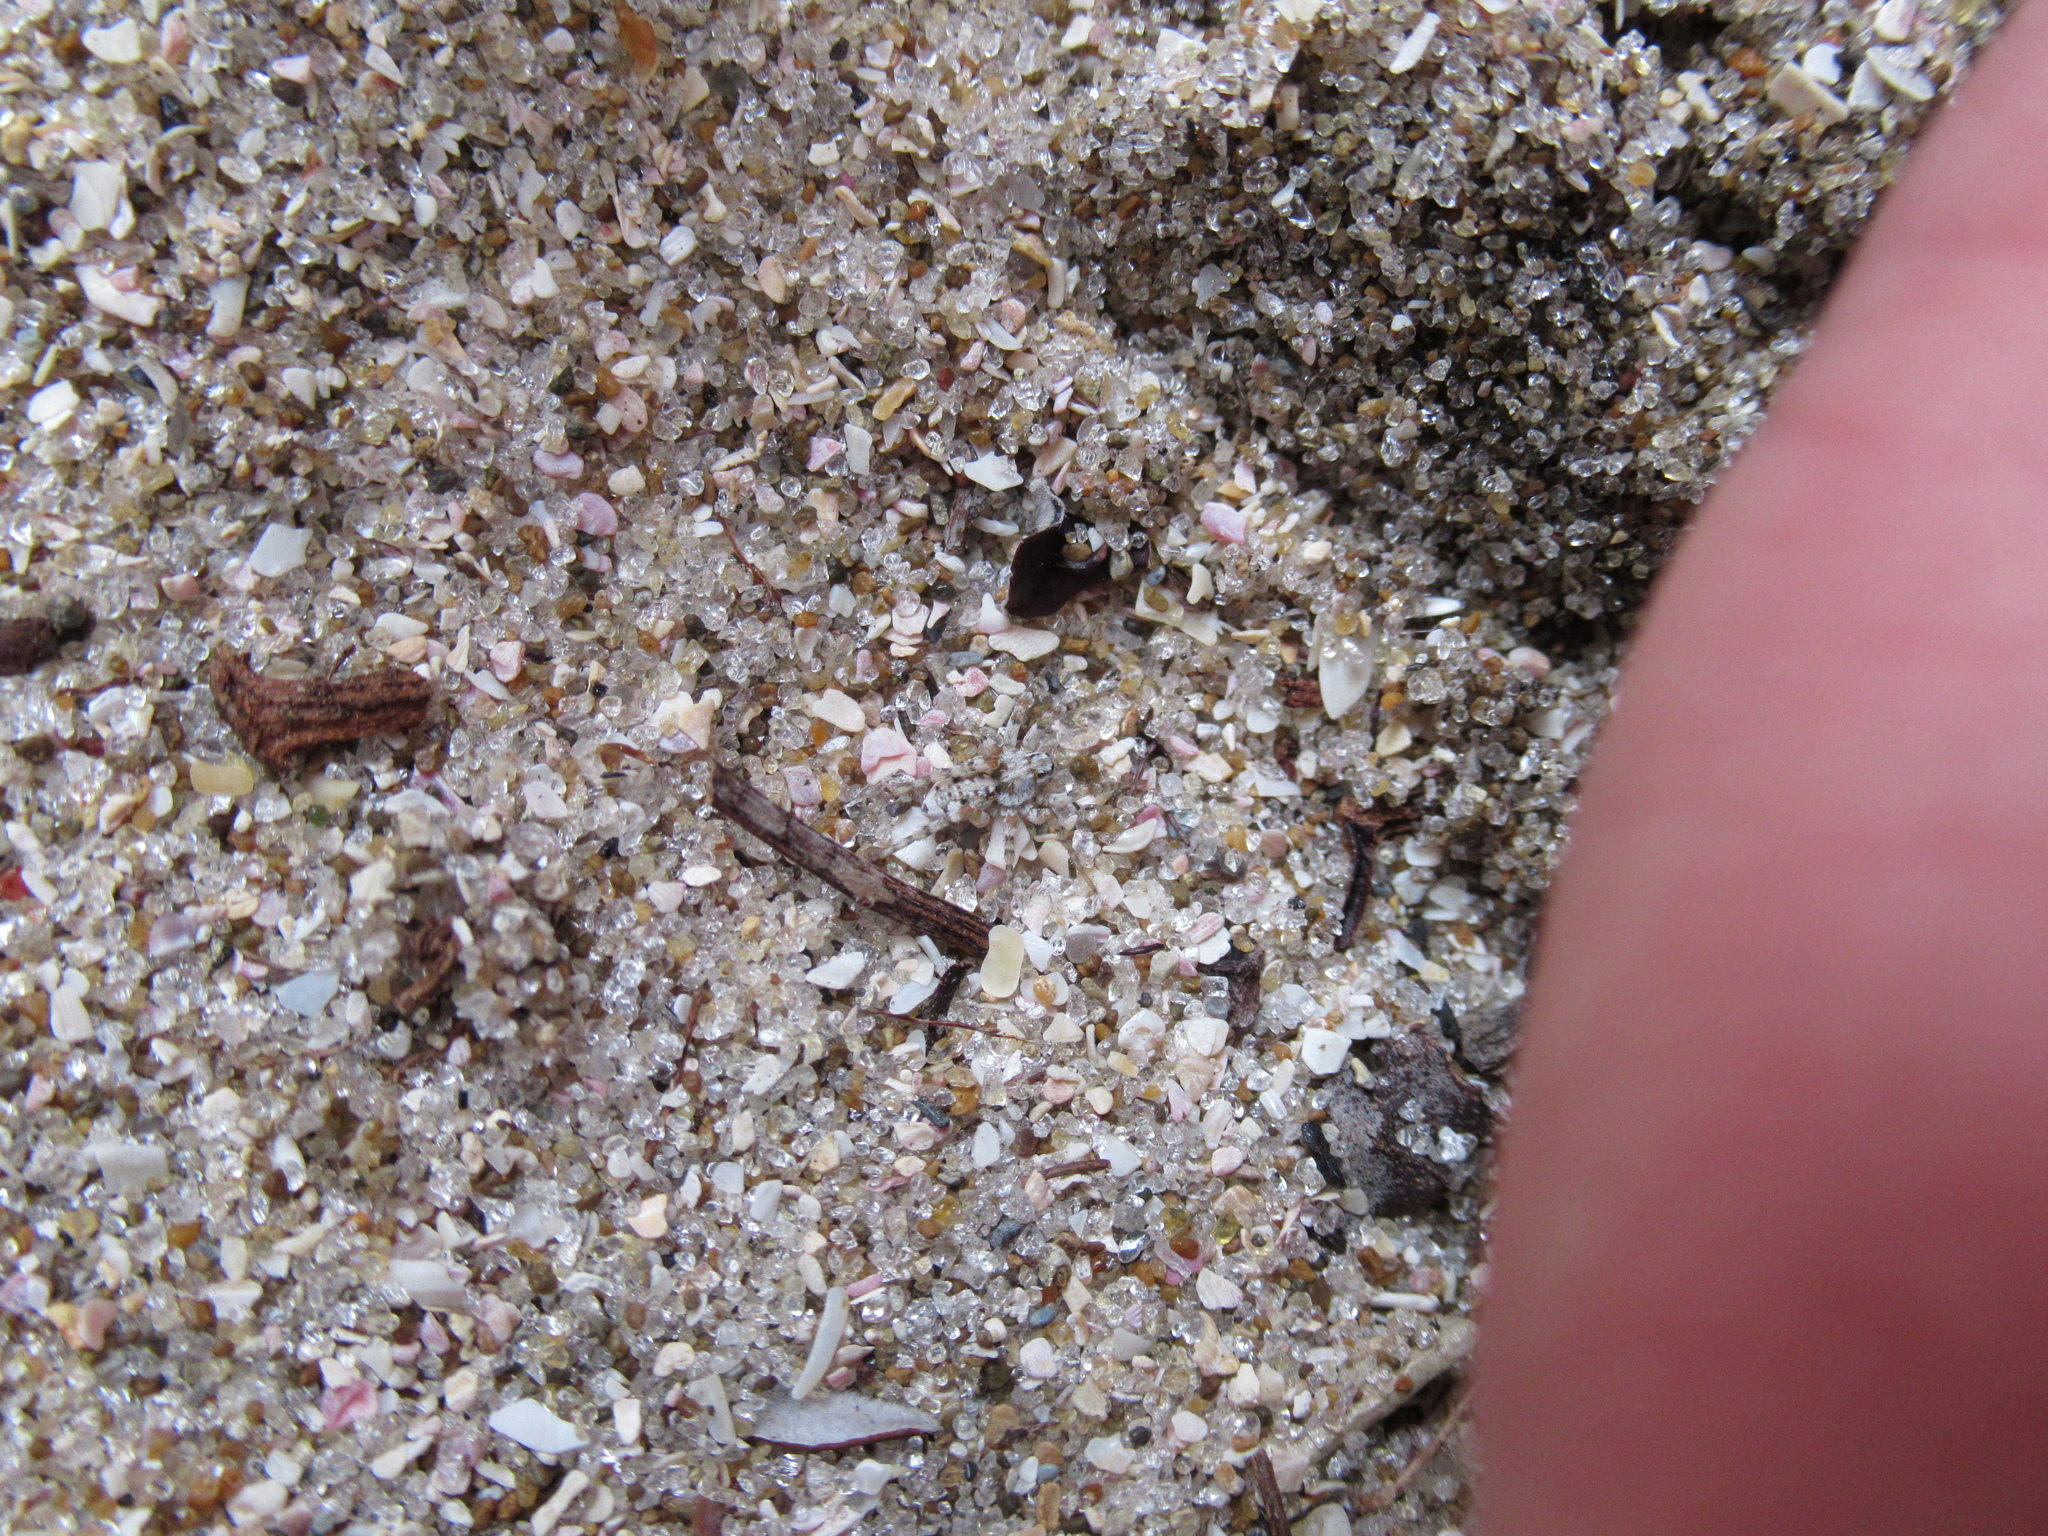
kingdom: Animalia
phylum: Arthropoda
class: Arachnida
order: Araneae
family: Lycosidae
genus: Anoteropsis
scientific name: Anoteropsis litoralis
